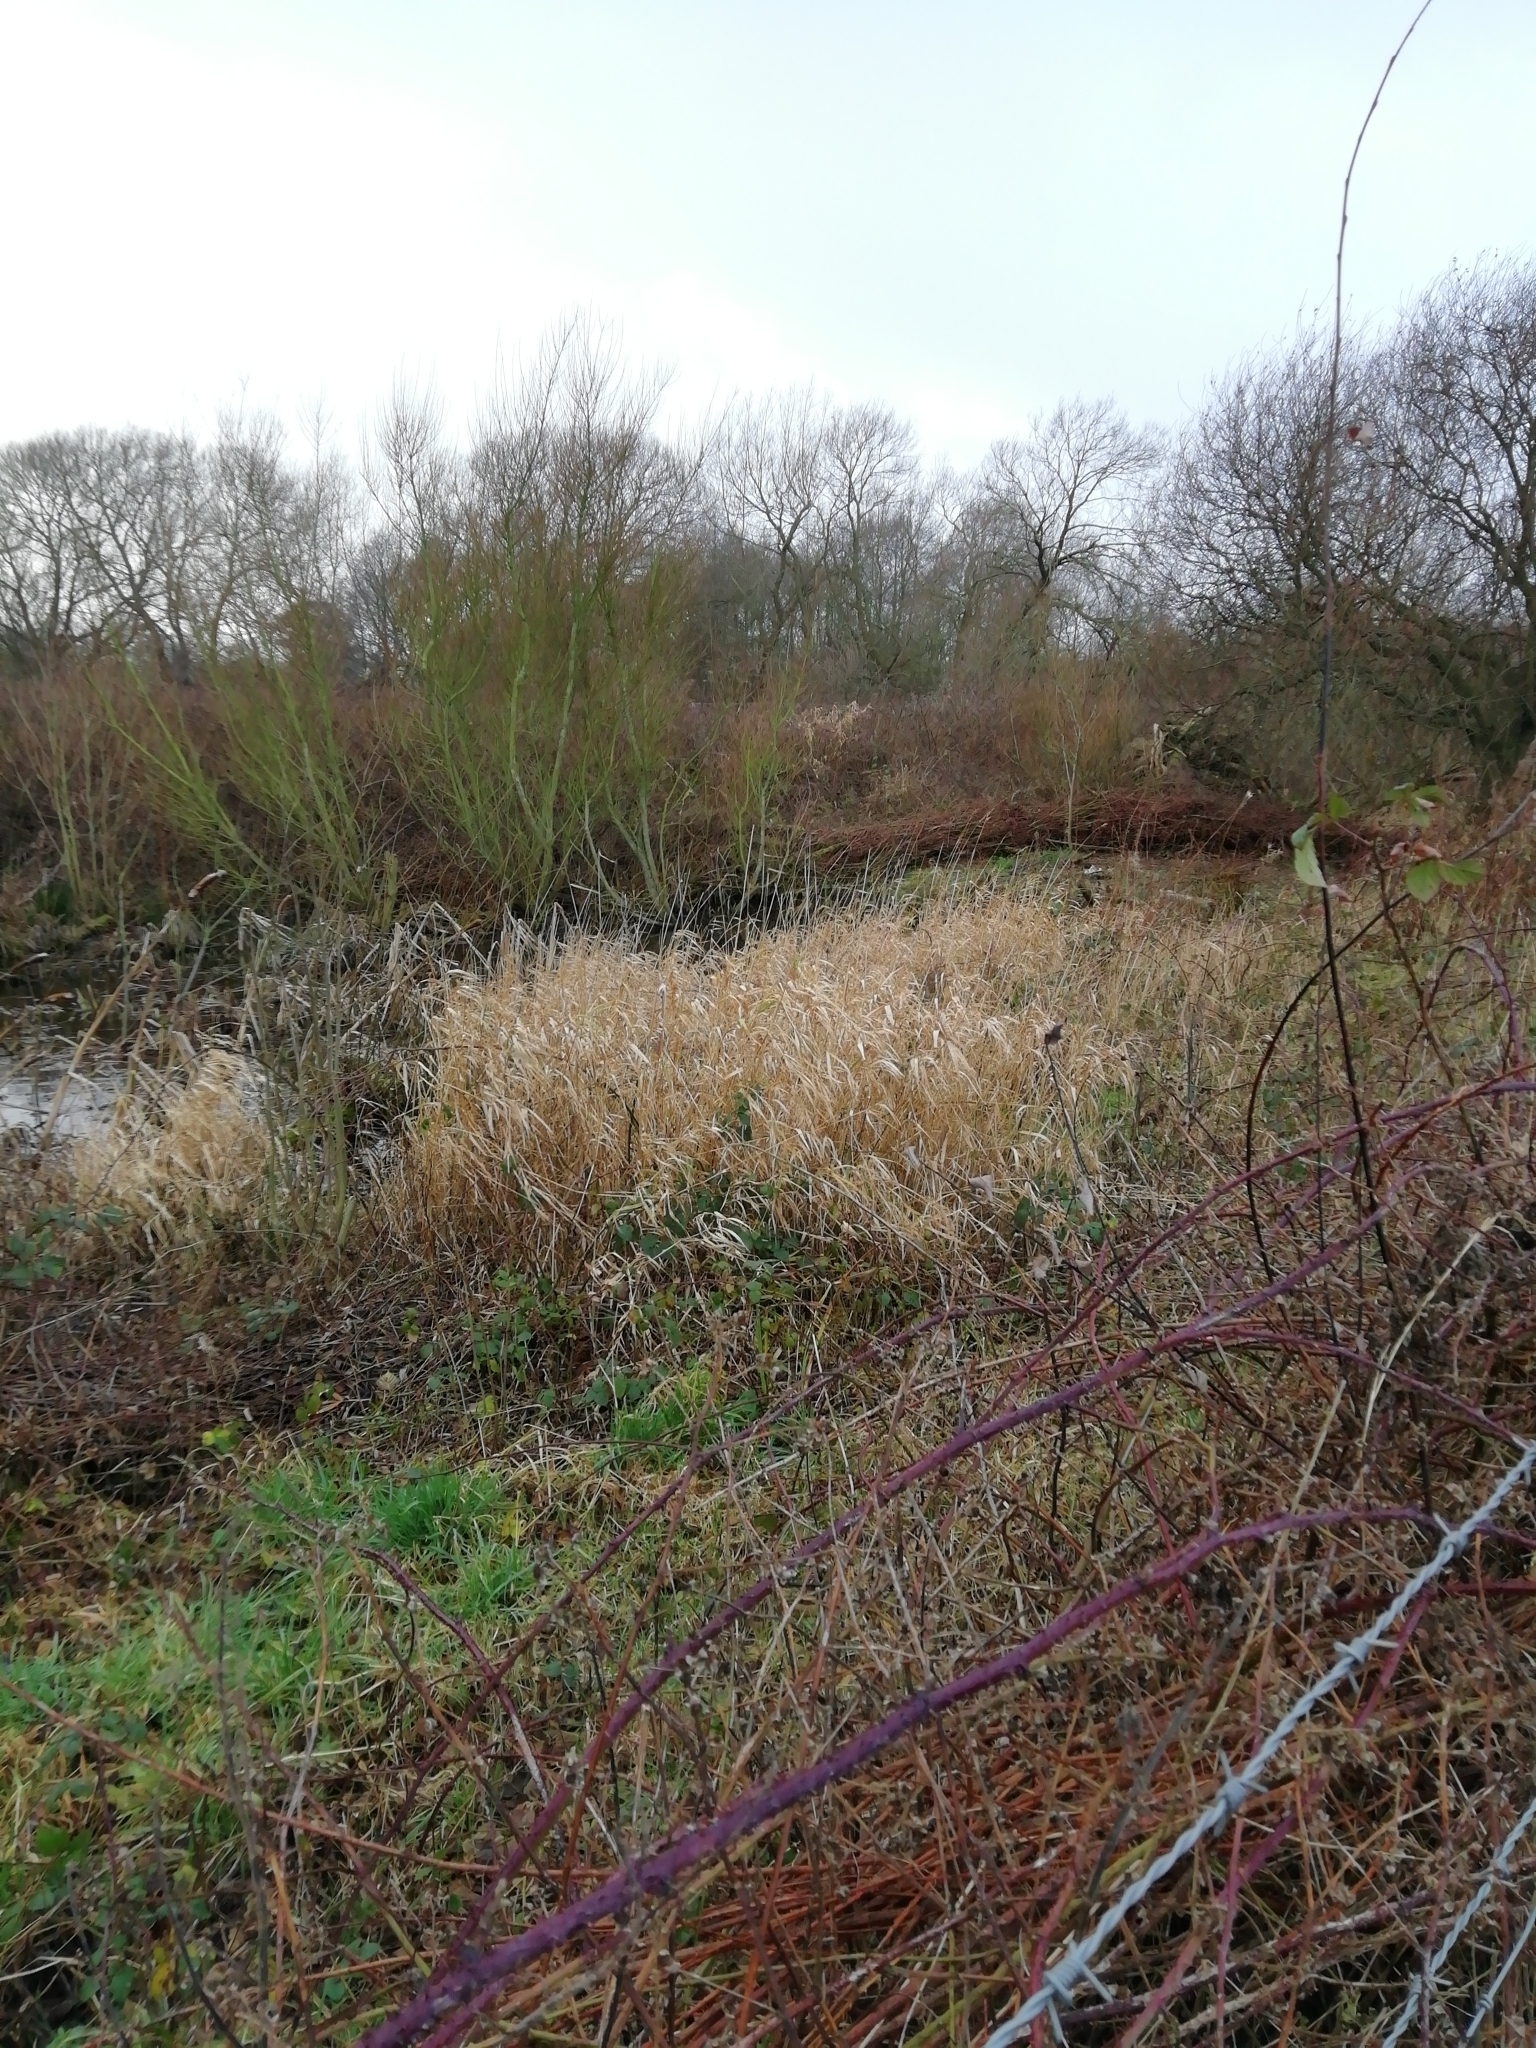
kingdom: Plantae
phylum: Tracheophyta
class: Liliopsida
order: Poales
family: Poaceae
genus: Phalaris
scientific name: Phalaris arundinacea
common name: Reed canary-grass
